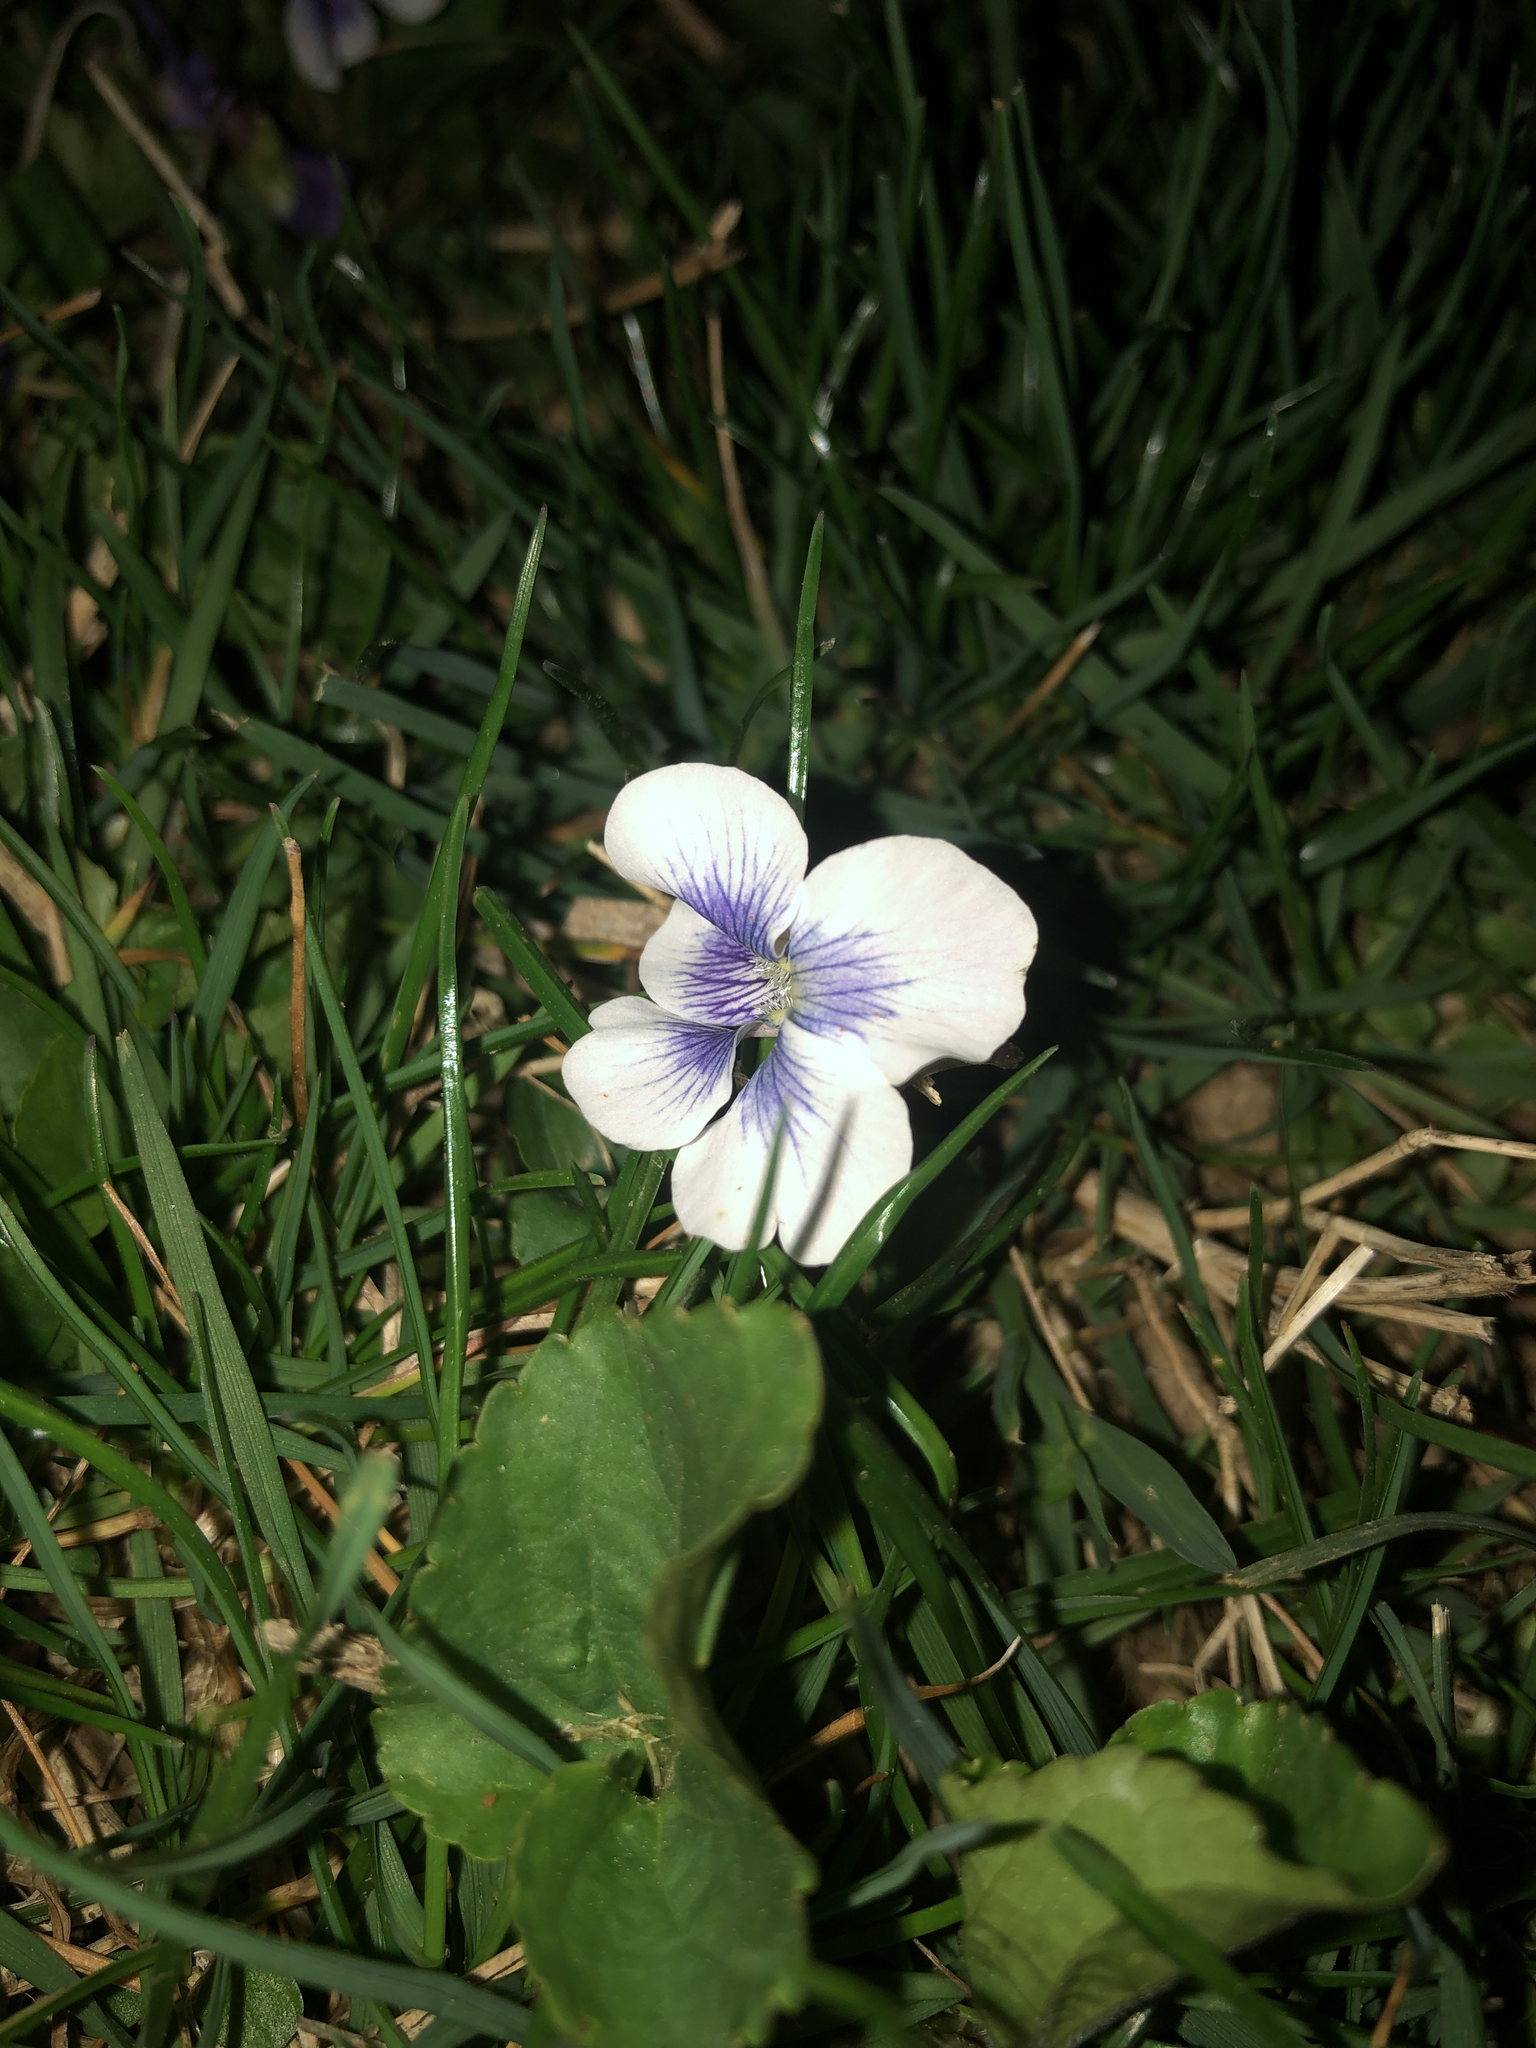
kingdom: Plantae
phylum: Tracheophyta
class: Magnoliopsida
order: Malpighiales
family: Violaceae
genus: Viola
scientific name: Viola sororia
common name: Dooryard violet
